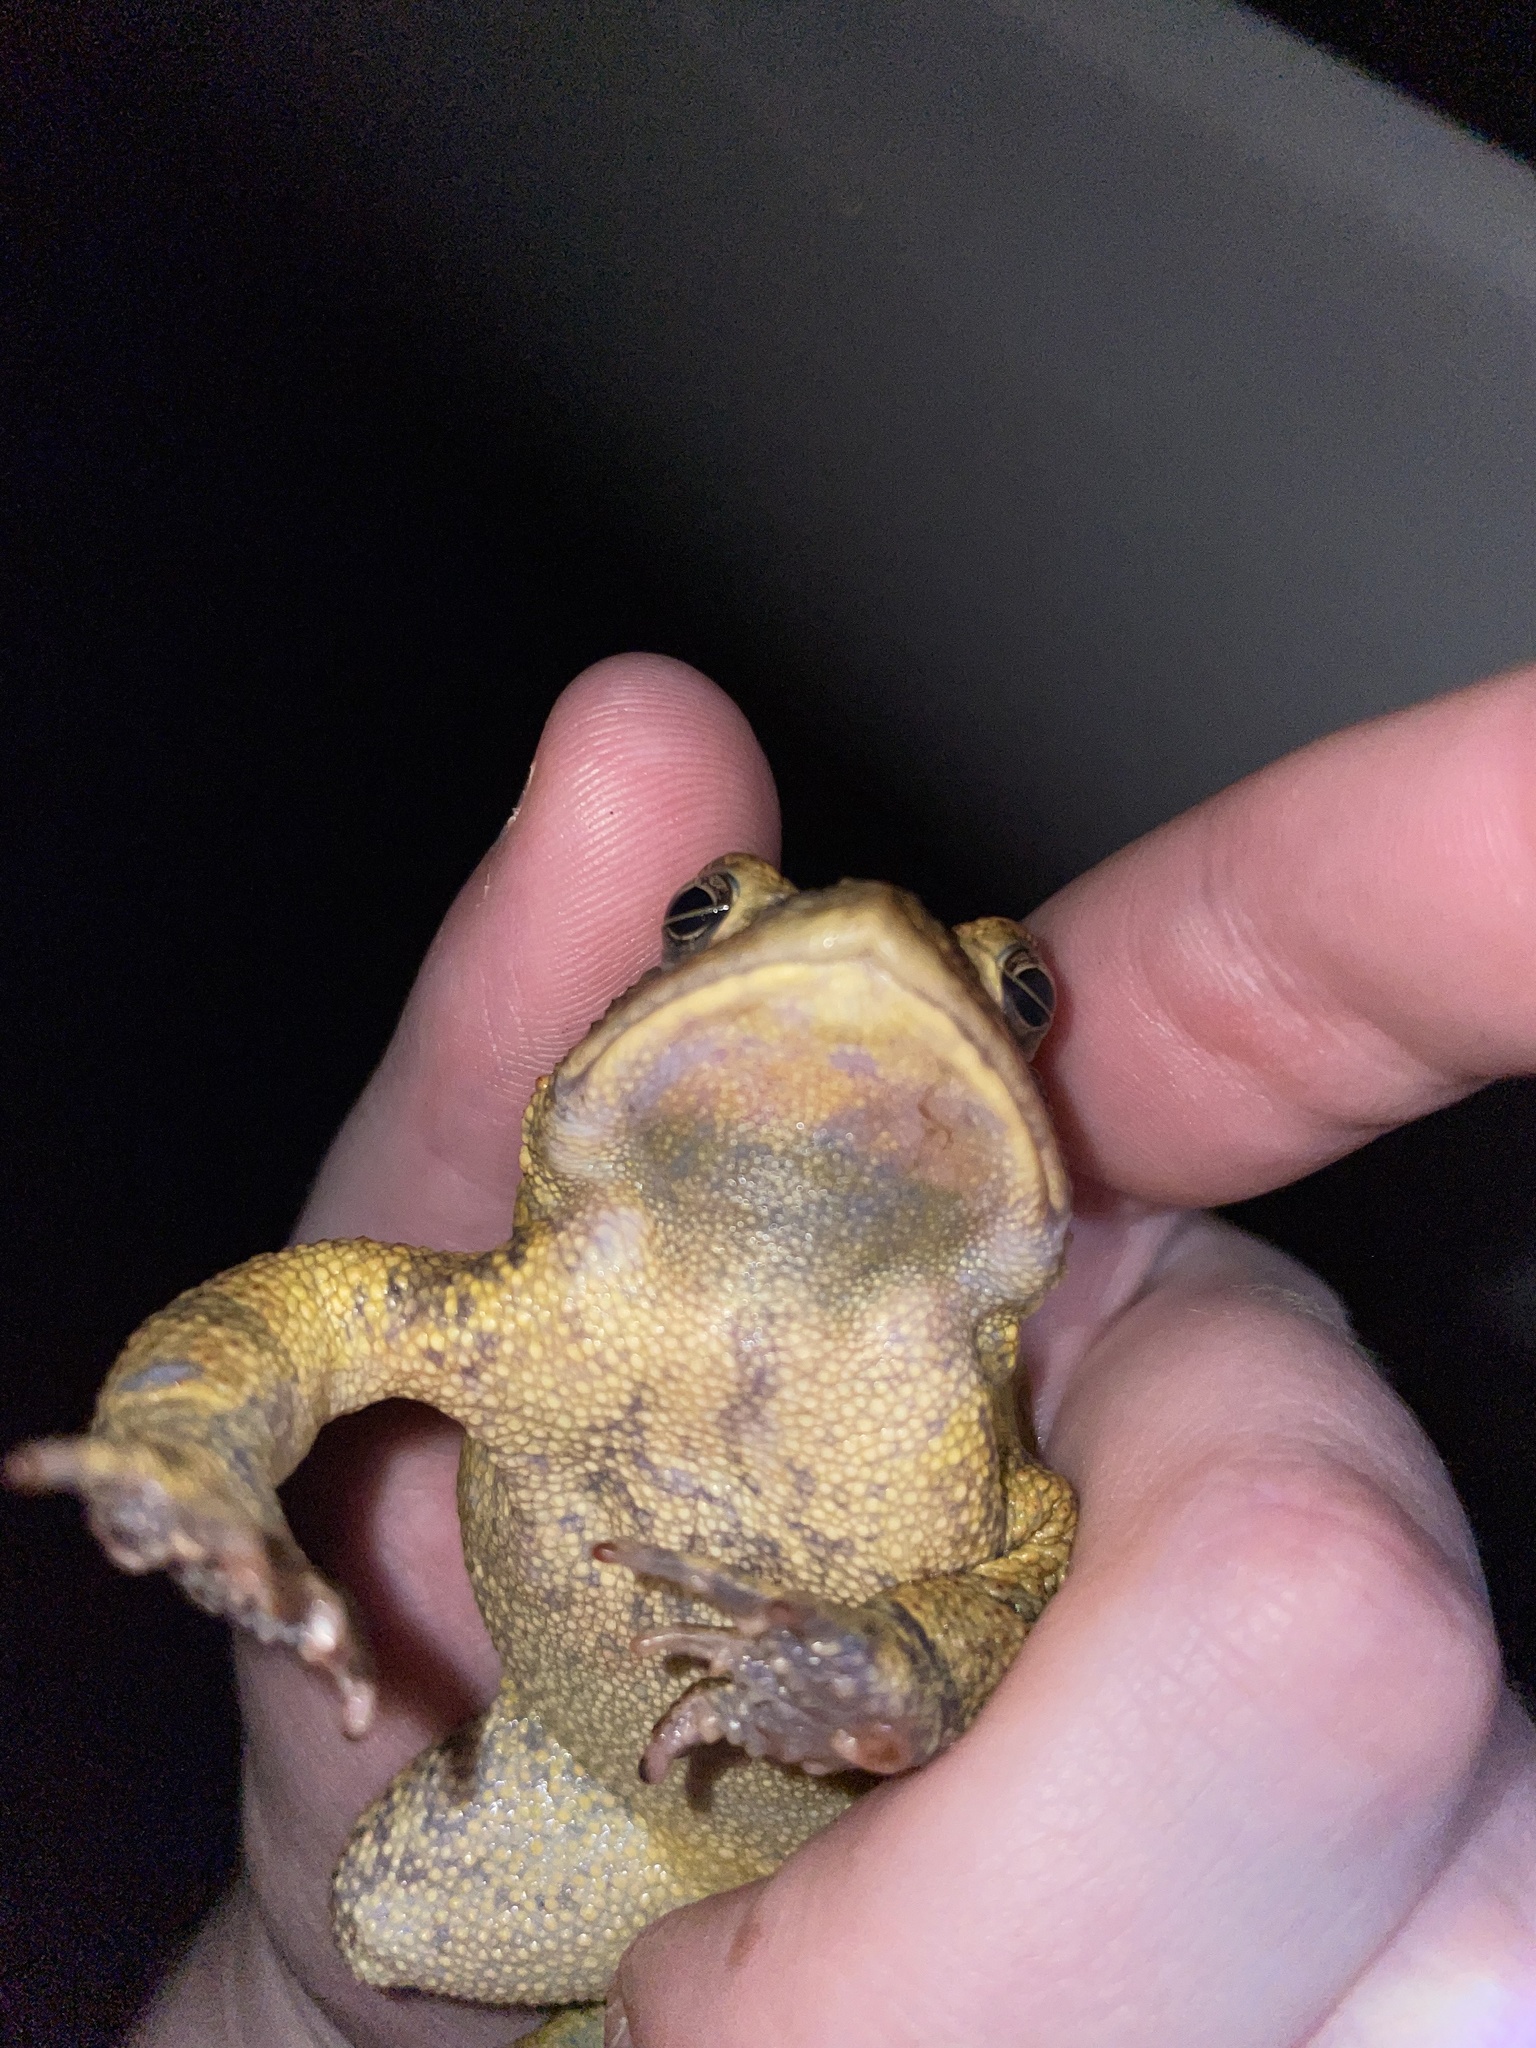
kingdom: Animalia
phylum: Chordata
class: Amphibia
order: Anura
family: Bufonidae
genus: Anaxyrus
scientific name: Anaxyrus fowleri
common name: Fowler's toad
